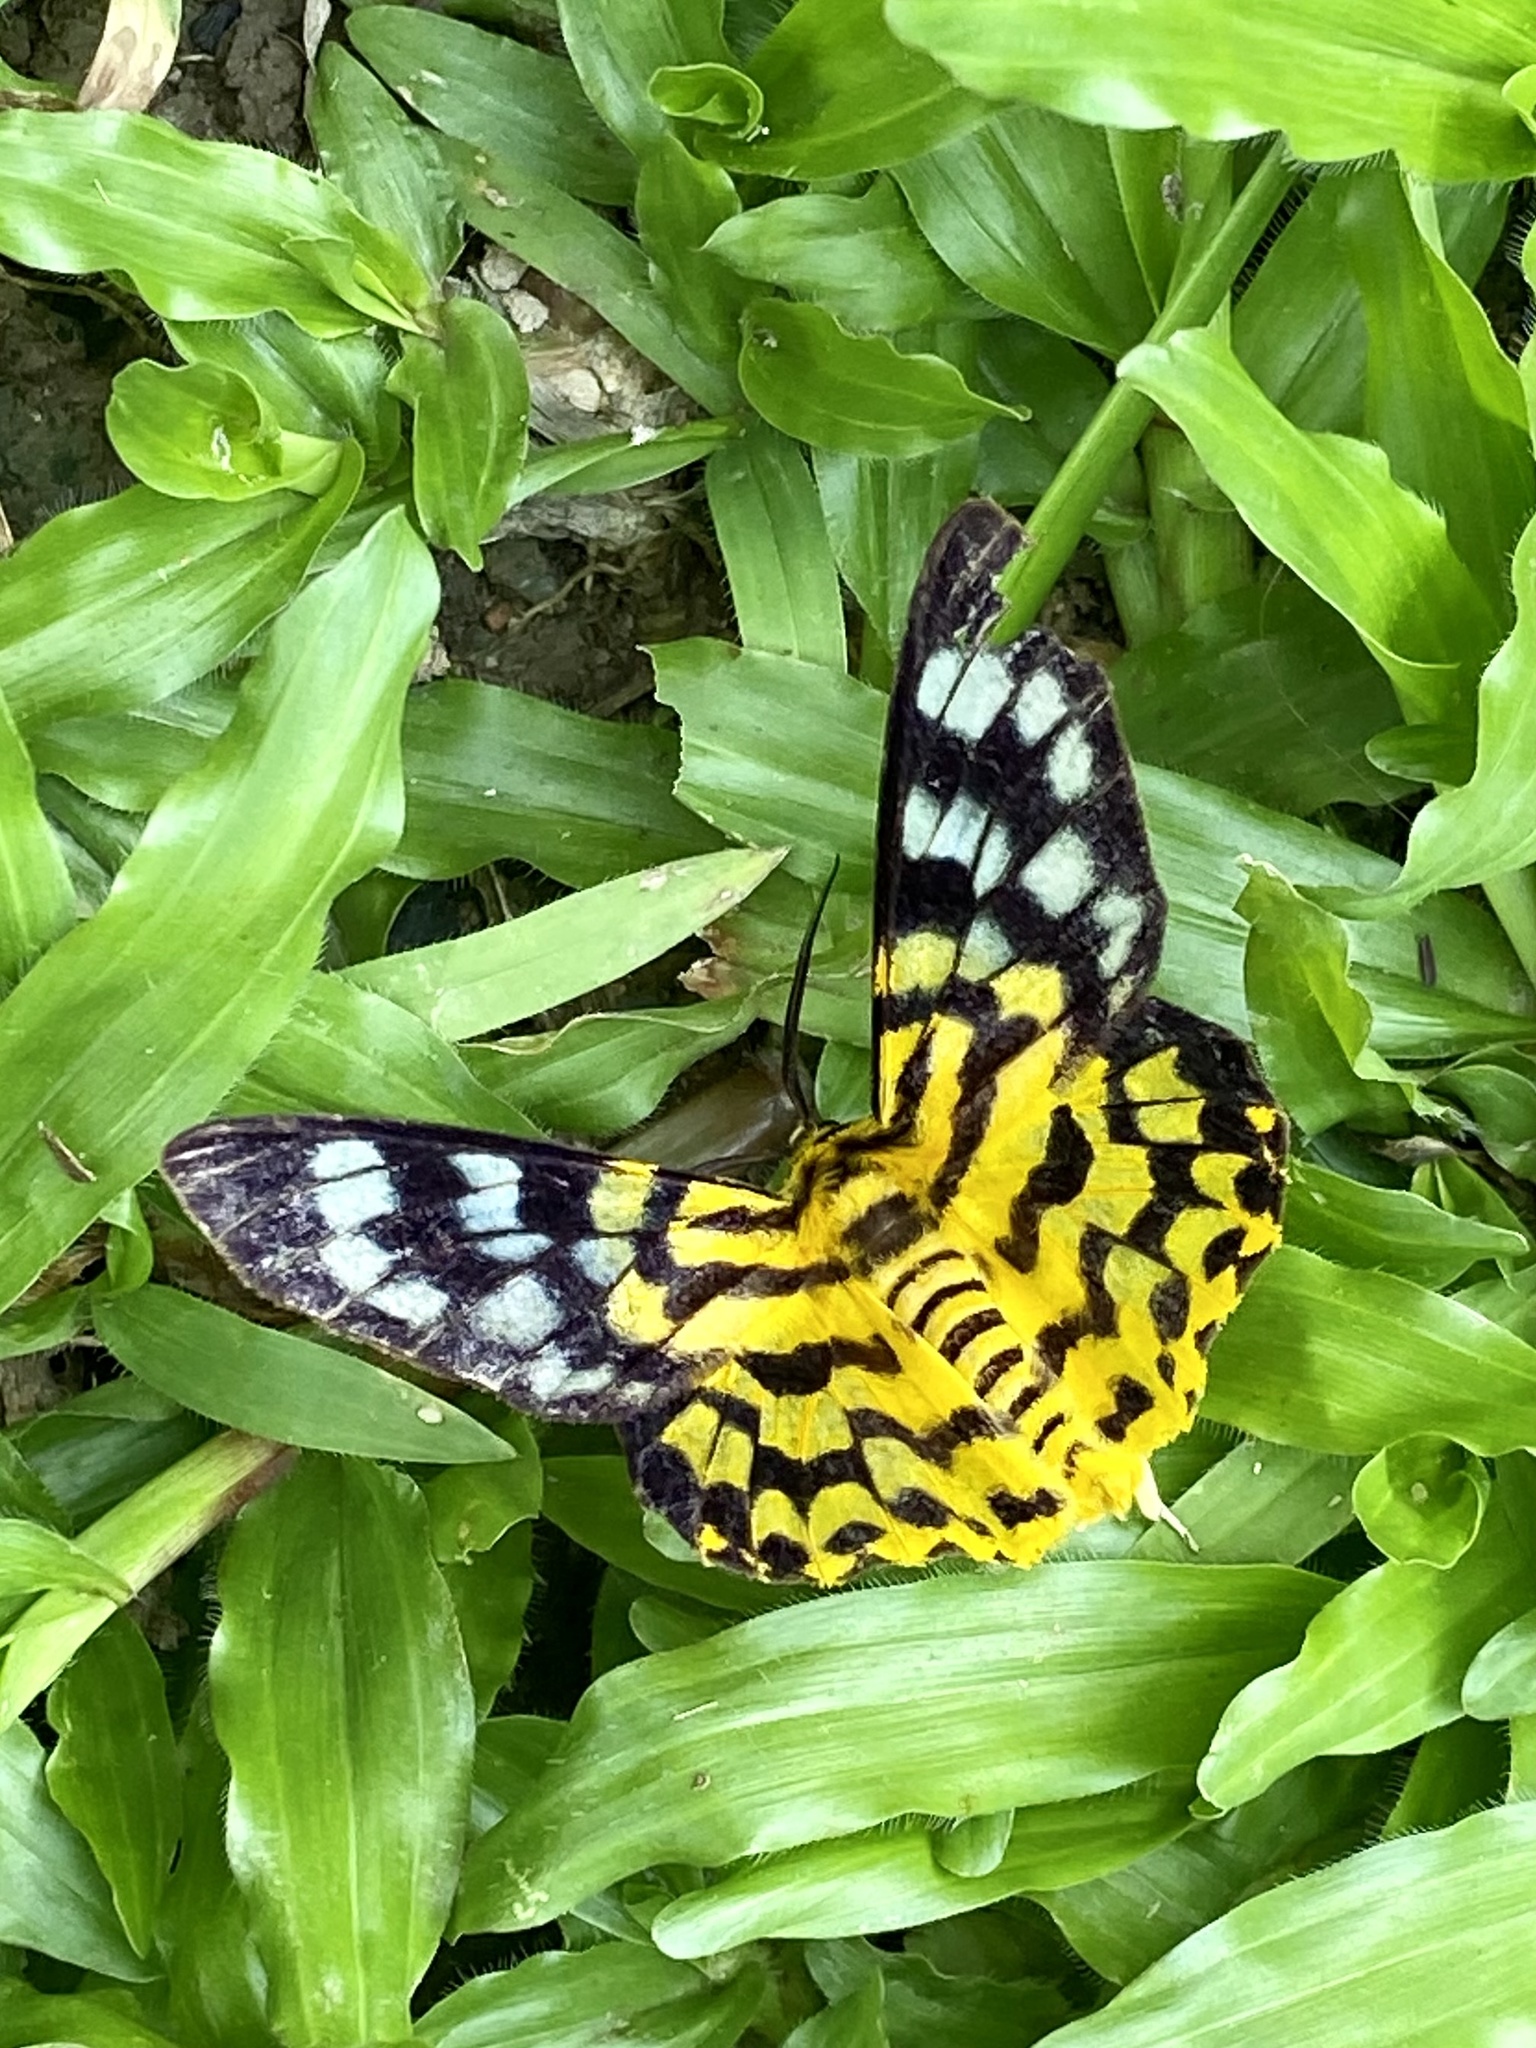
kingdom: Animalia
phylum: Arthropoda
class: Insecta
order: Lepidoptera
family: Geometridae
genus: Dysphania
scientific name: Dysphania militaris
